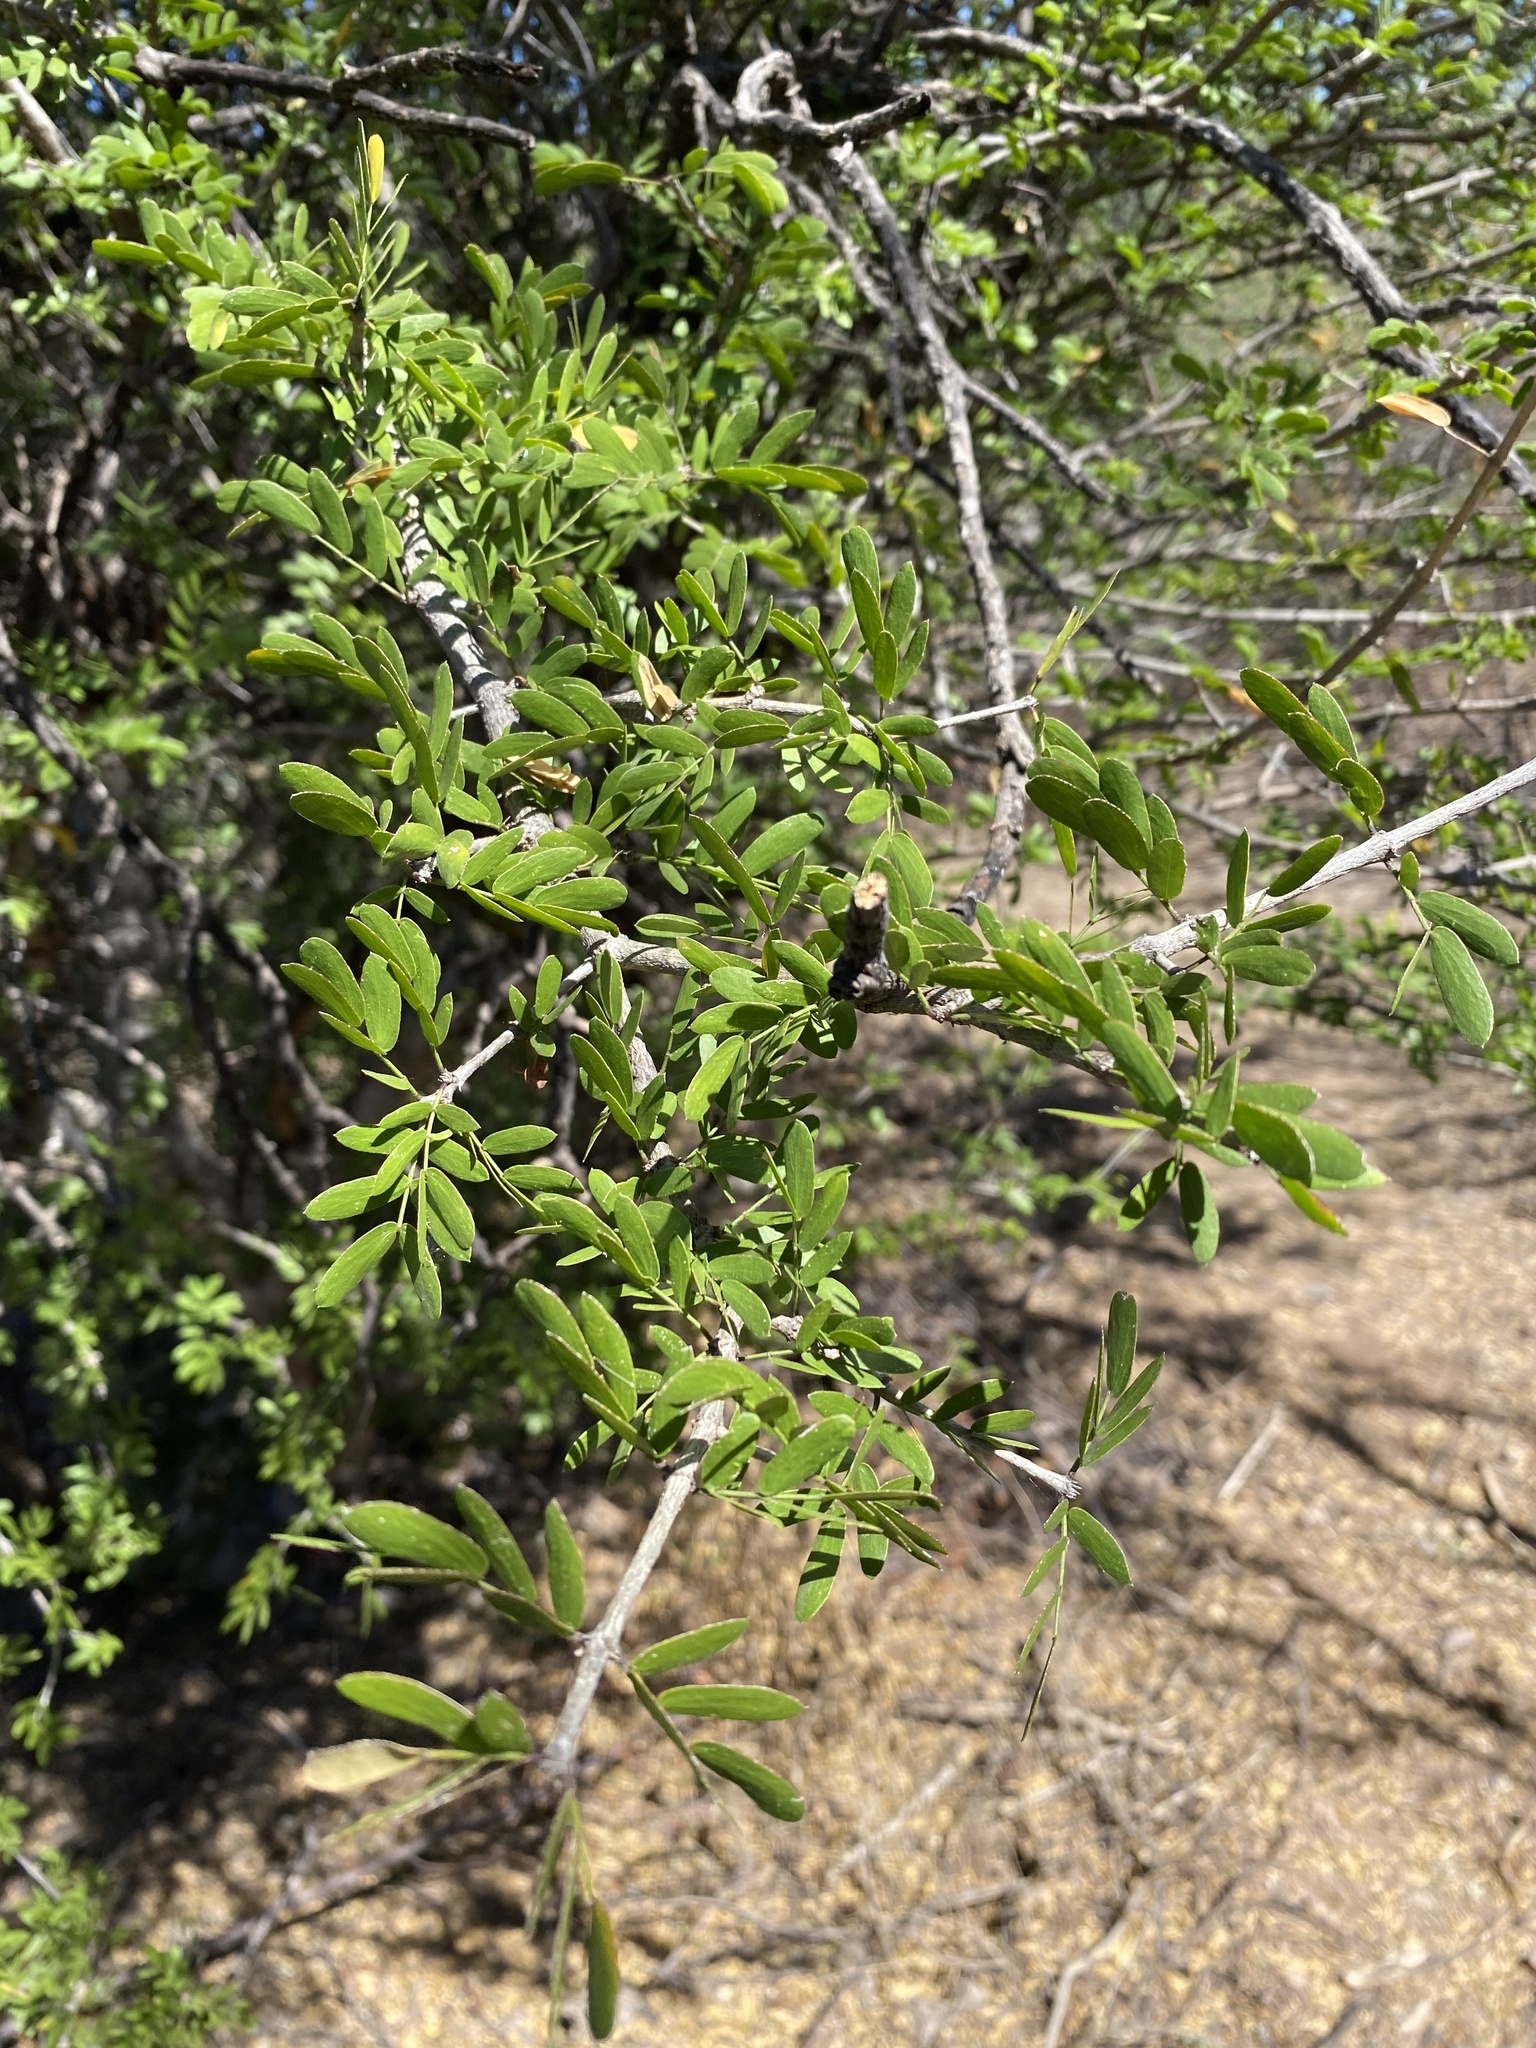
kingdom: Plantae
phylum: Tracheophyta
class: Magnoliopsida
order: Zygophyllales
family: Zygophyllaceae
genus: Guaiacum
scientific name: Guaiacum coulteri
